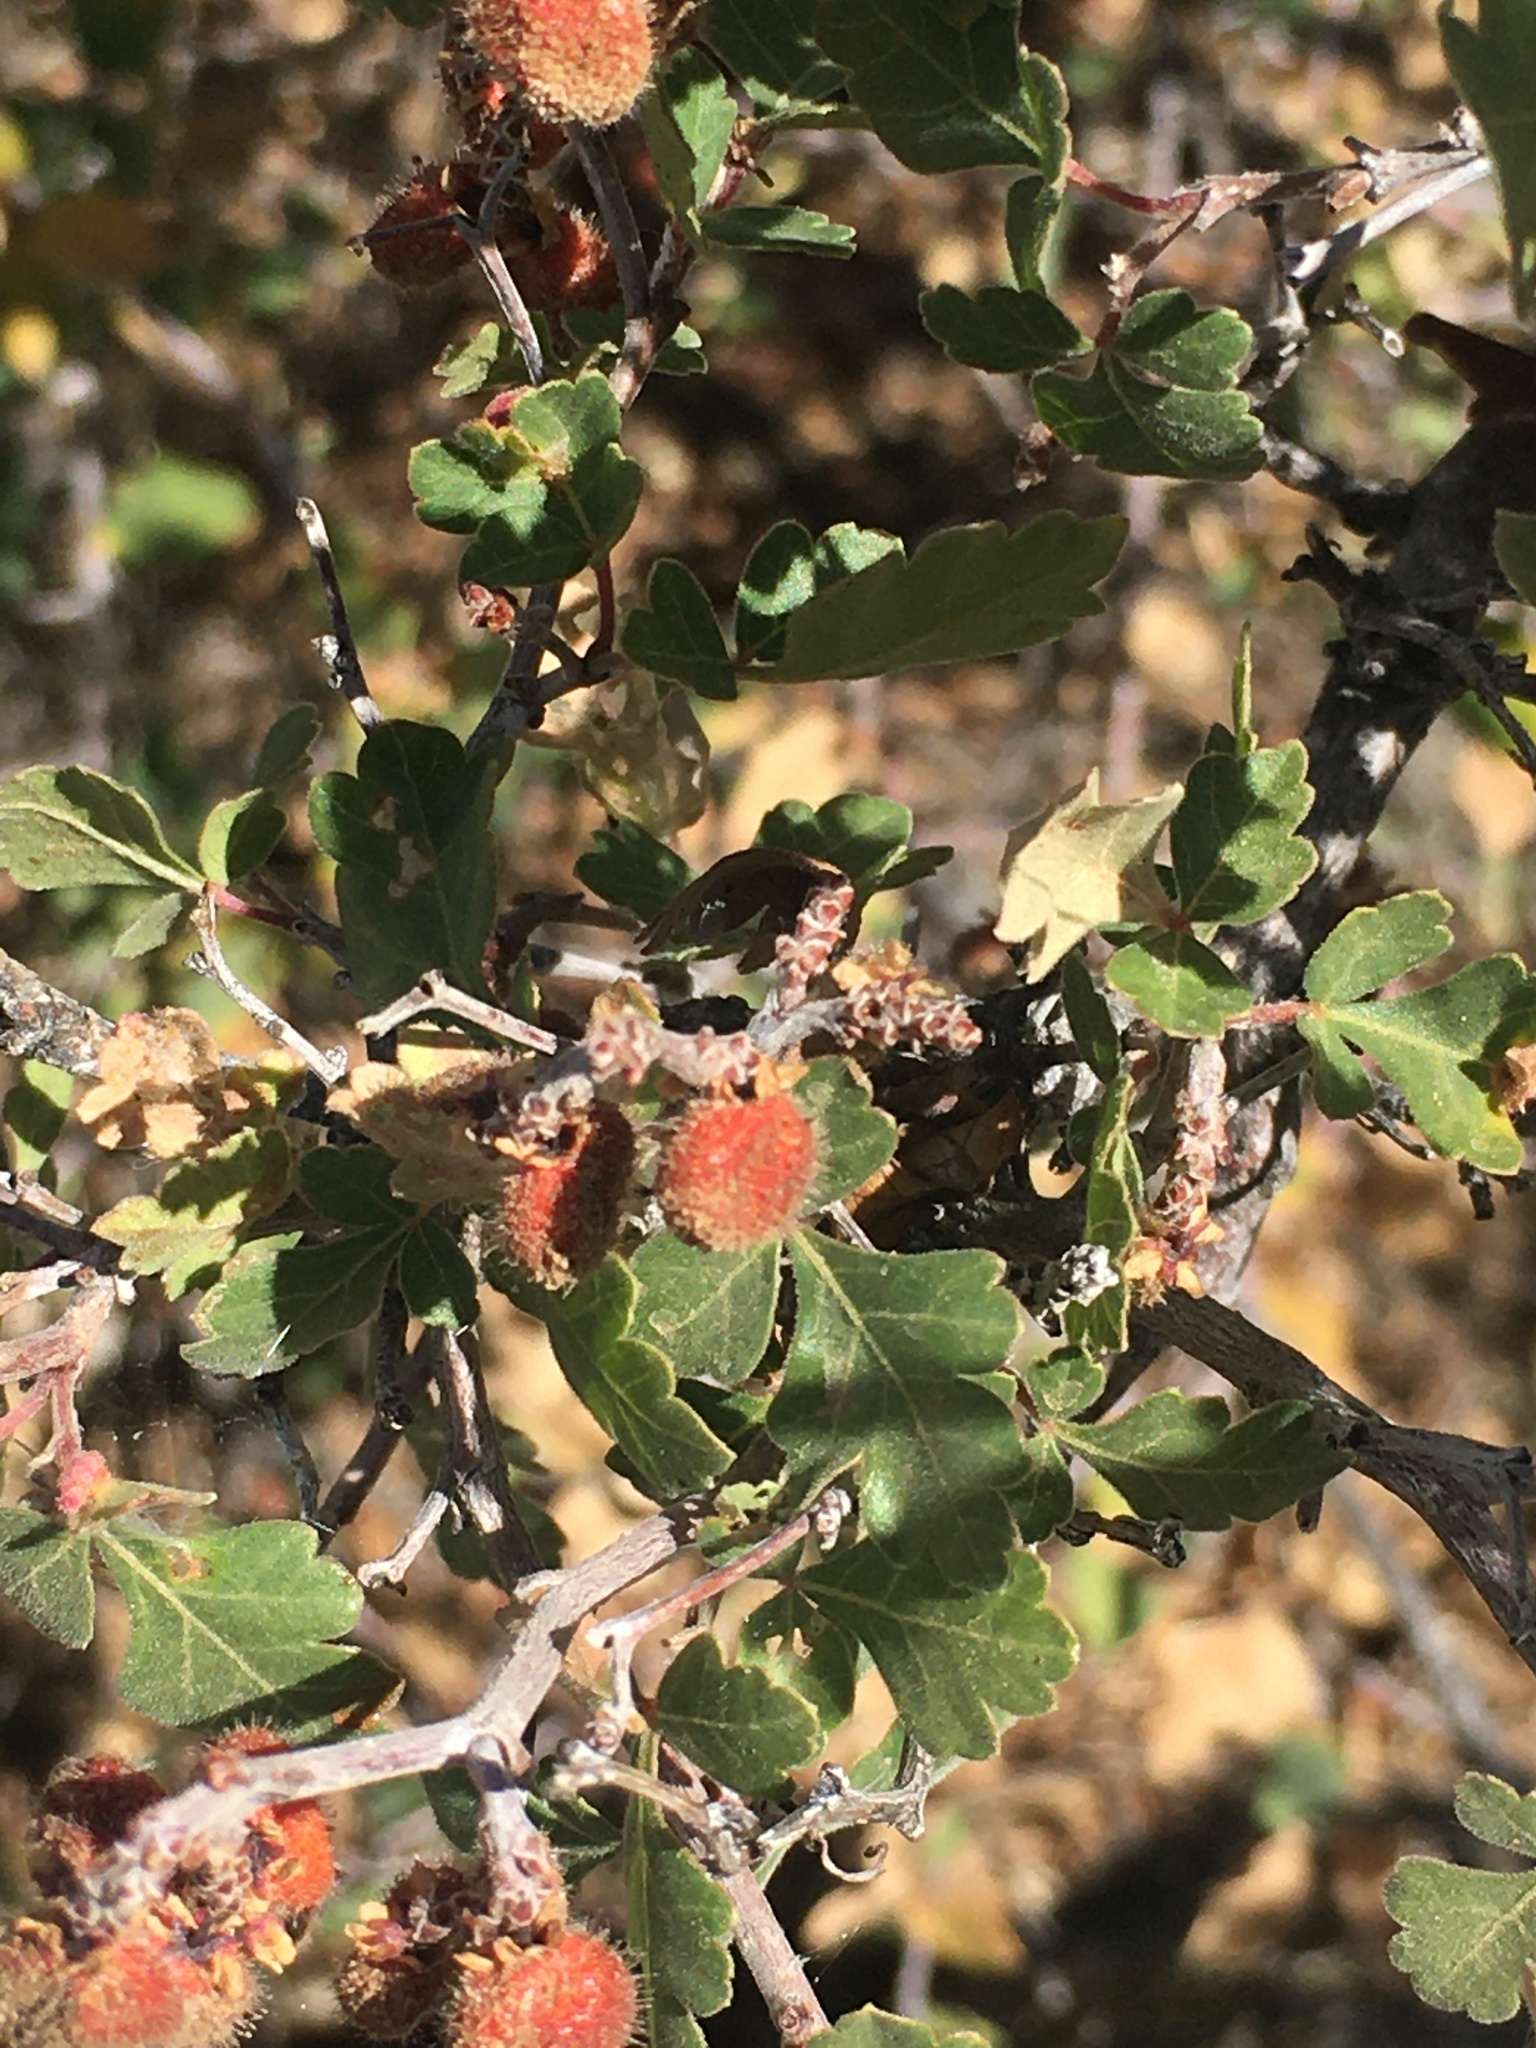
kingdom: Plantae
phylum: Tracheophyta
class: Magnoliopsida
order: Sapindales
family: Anacardiaceae
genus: Rhus
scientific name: Rhus trilobata
